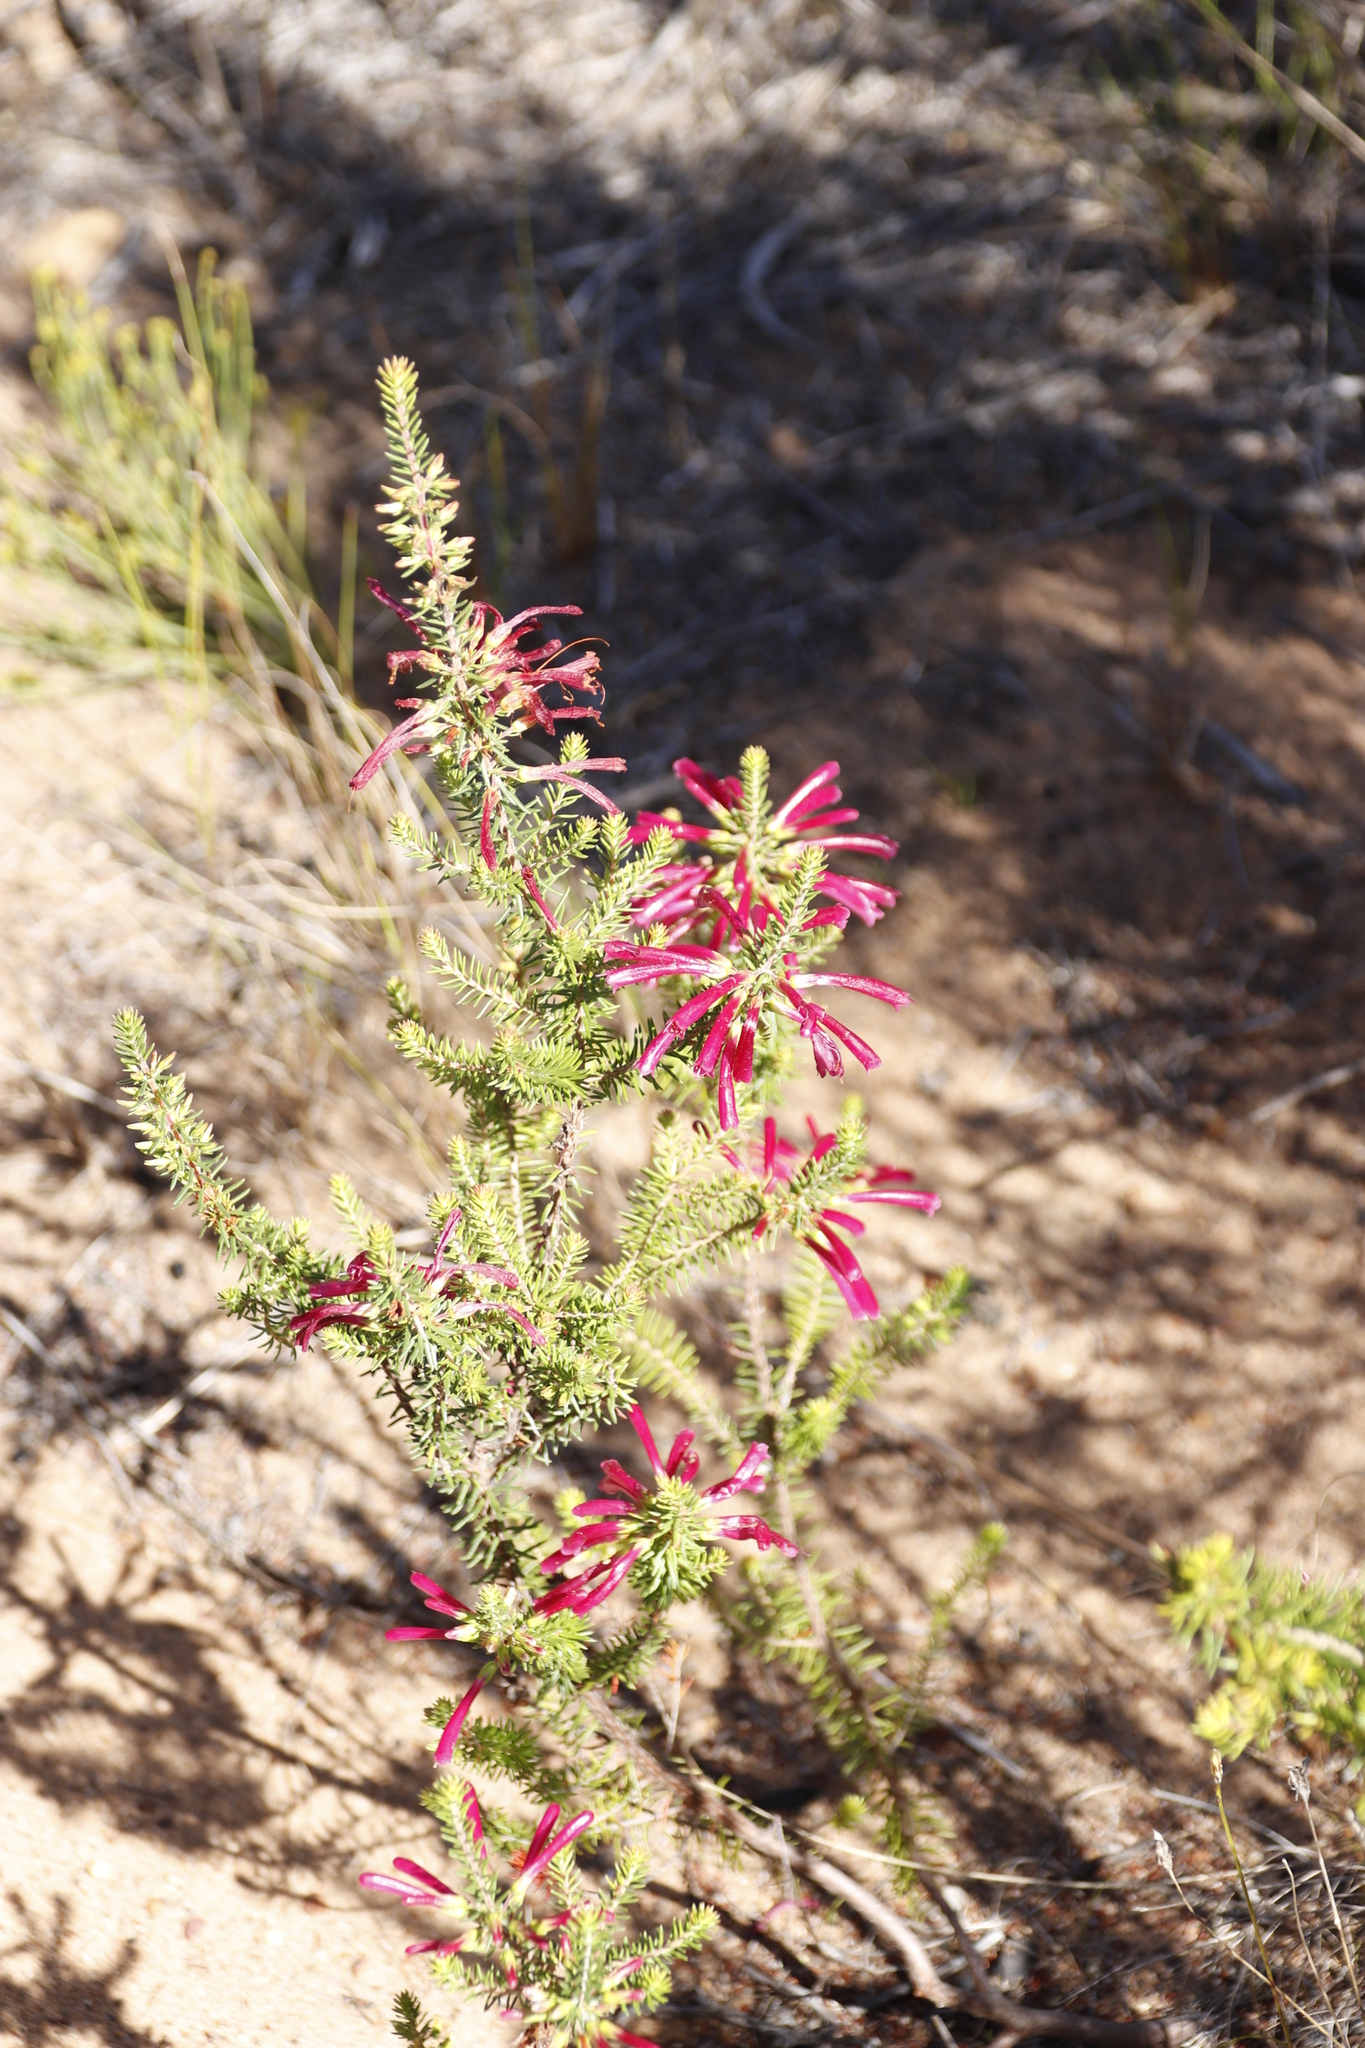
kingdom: Plantae
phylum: Tracheophyta
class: Magnoliopsida
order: Ericales
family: Ericaceae
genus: Erica
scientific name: Erica abietina
